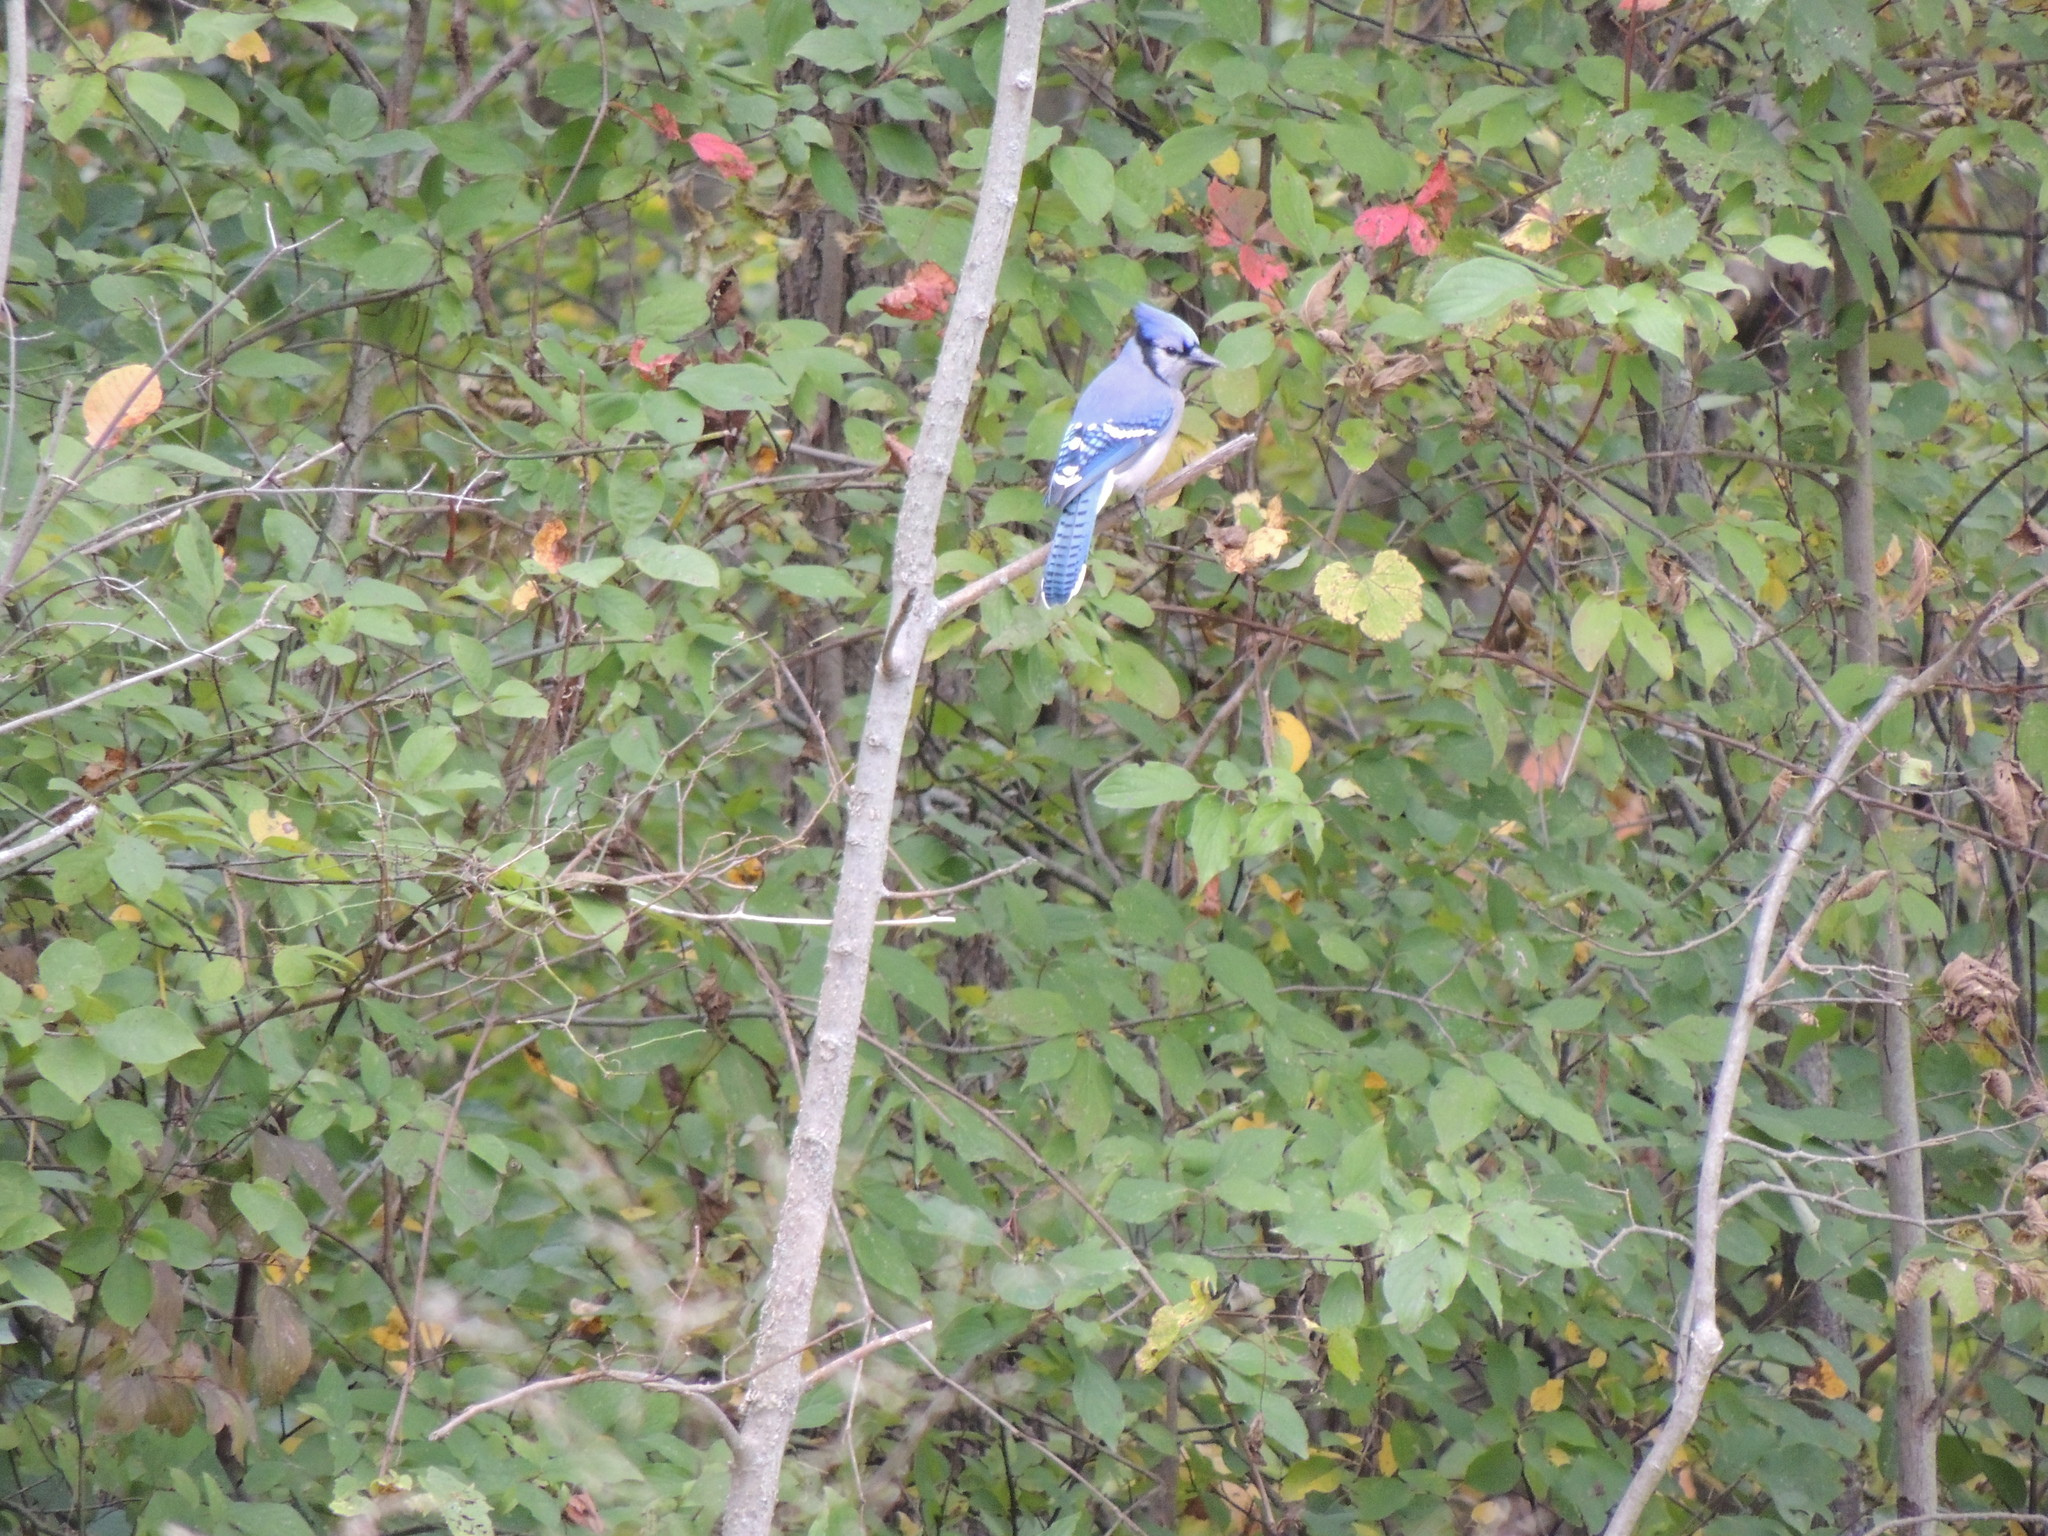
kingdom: Animalia
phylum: Chordata
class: Aves
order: Passeriformes
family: Corvidae
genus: Cyanocitta
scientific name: Cyanocitta cristata
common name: Blue jay
